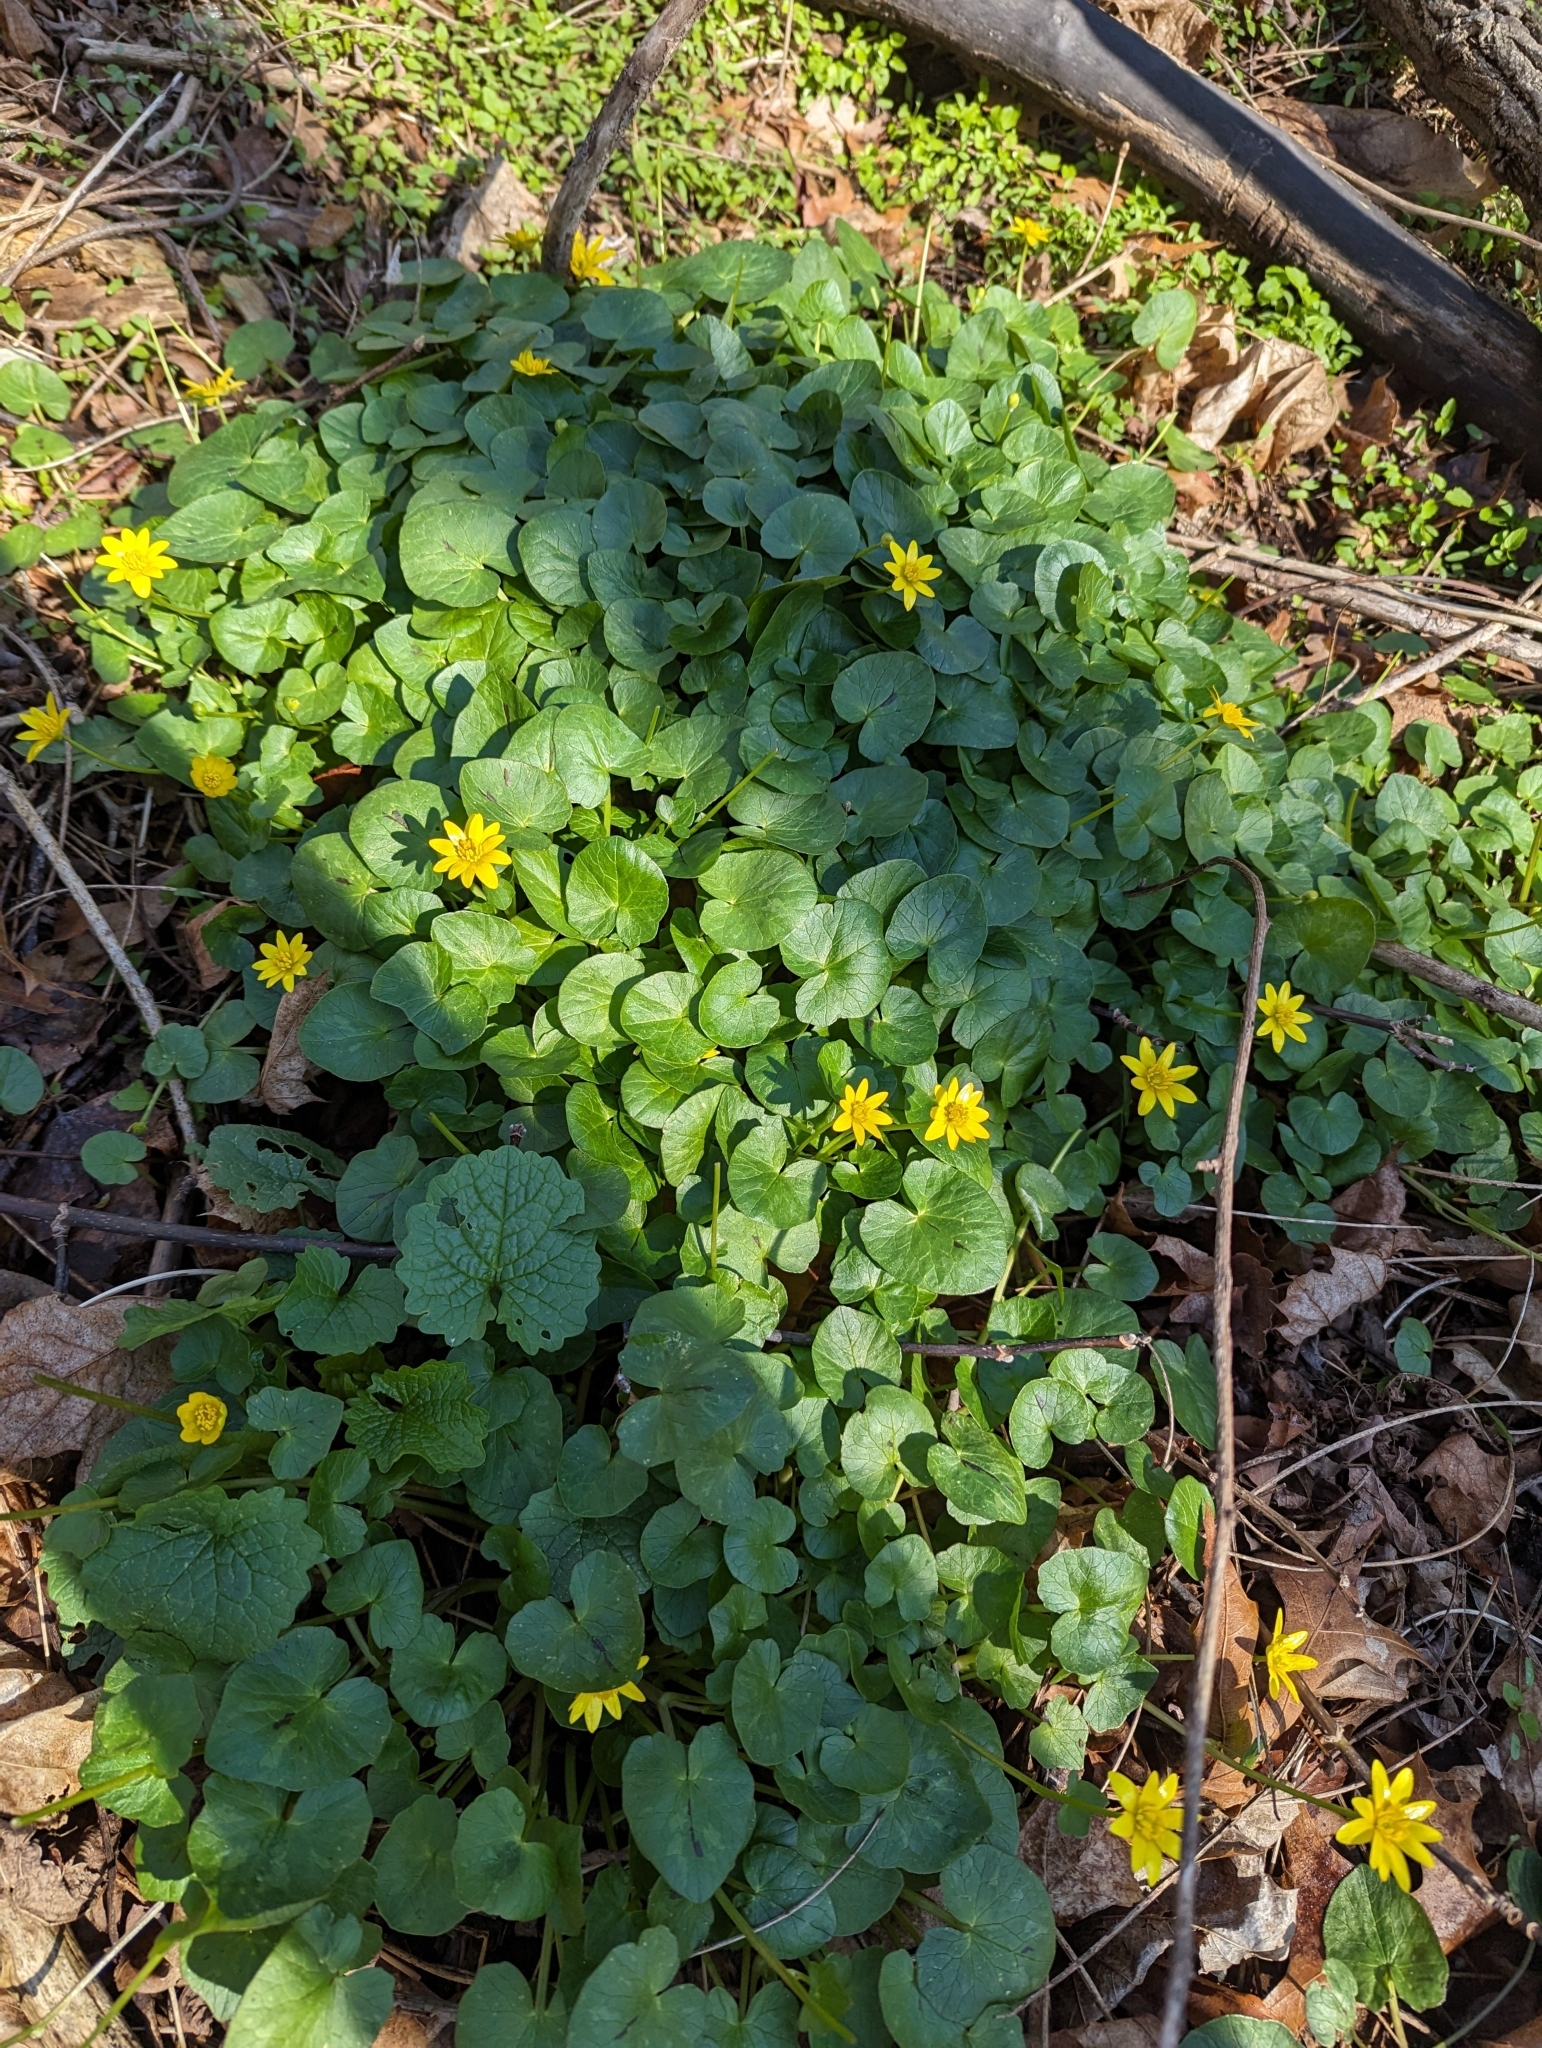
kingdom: Plantae
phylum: Tracheophyta
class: Magnoliopsida
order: Ranunculales
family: Ranunculaceae
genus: Ficaria
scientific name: Ficaria verna
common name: Lesser celandine
